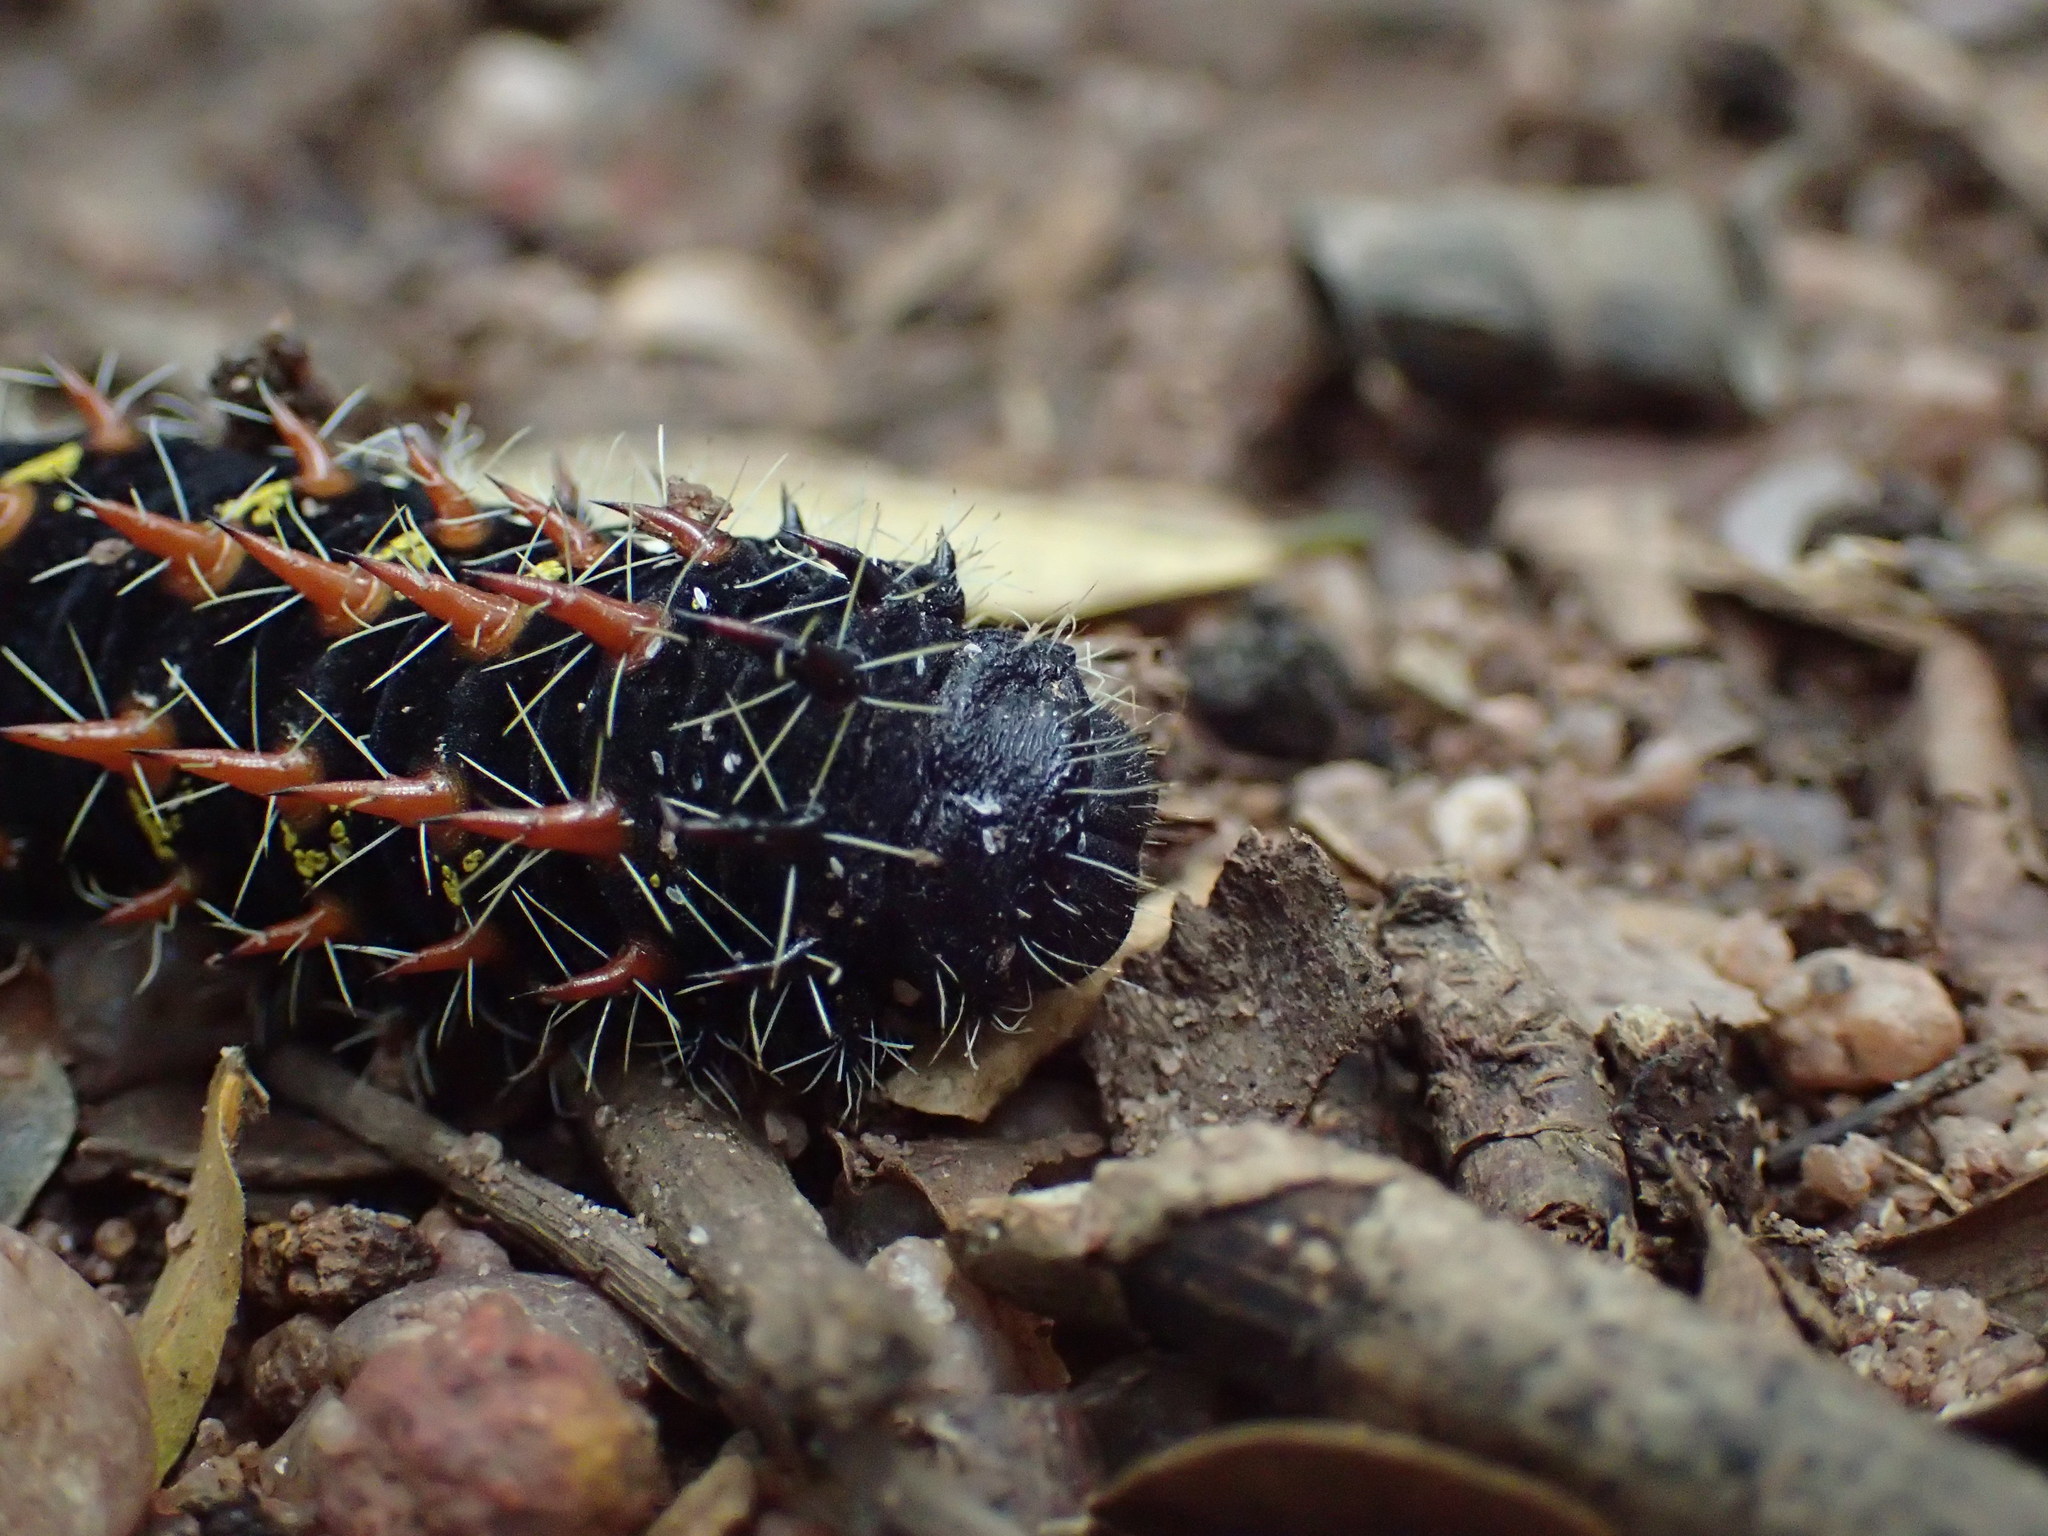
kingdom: Animalia
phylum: Arthropoda
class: Insecta
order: Lepidoptera
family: Saturniidae
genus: Nudaurelia
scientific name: Nudaurelia wahlbergi
